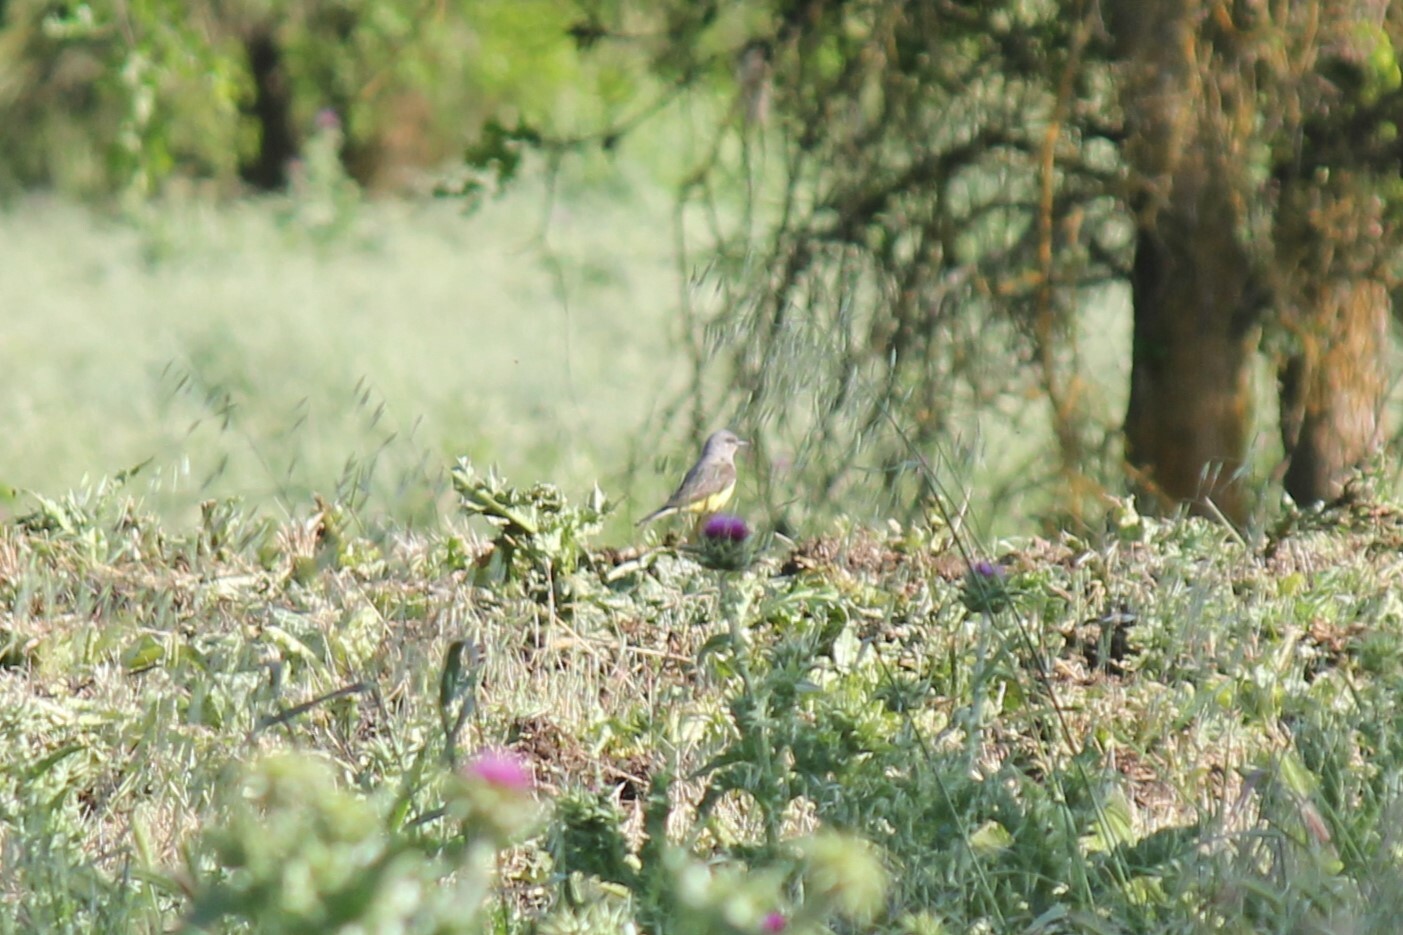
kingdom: Animalia
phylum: Chordata
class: Aves
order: Passeriformes
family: Tyrannidae
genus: Tyrannus
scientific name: Tyrannus verticalis
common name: Western kingbird
